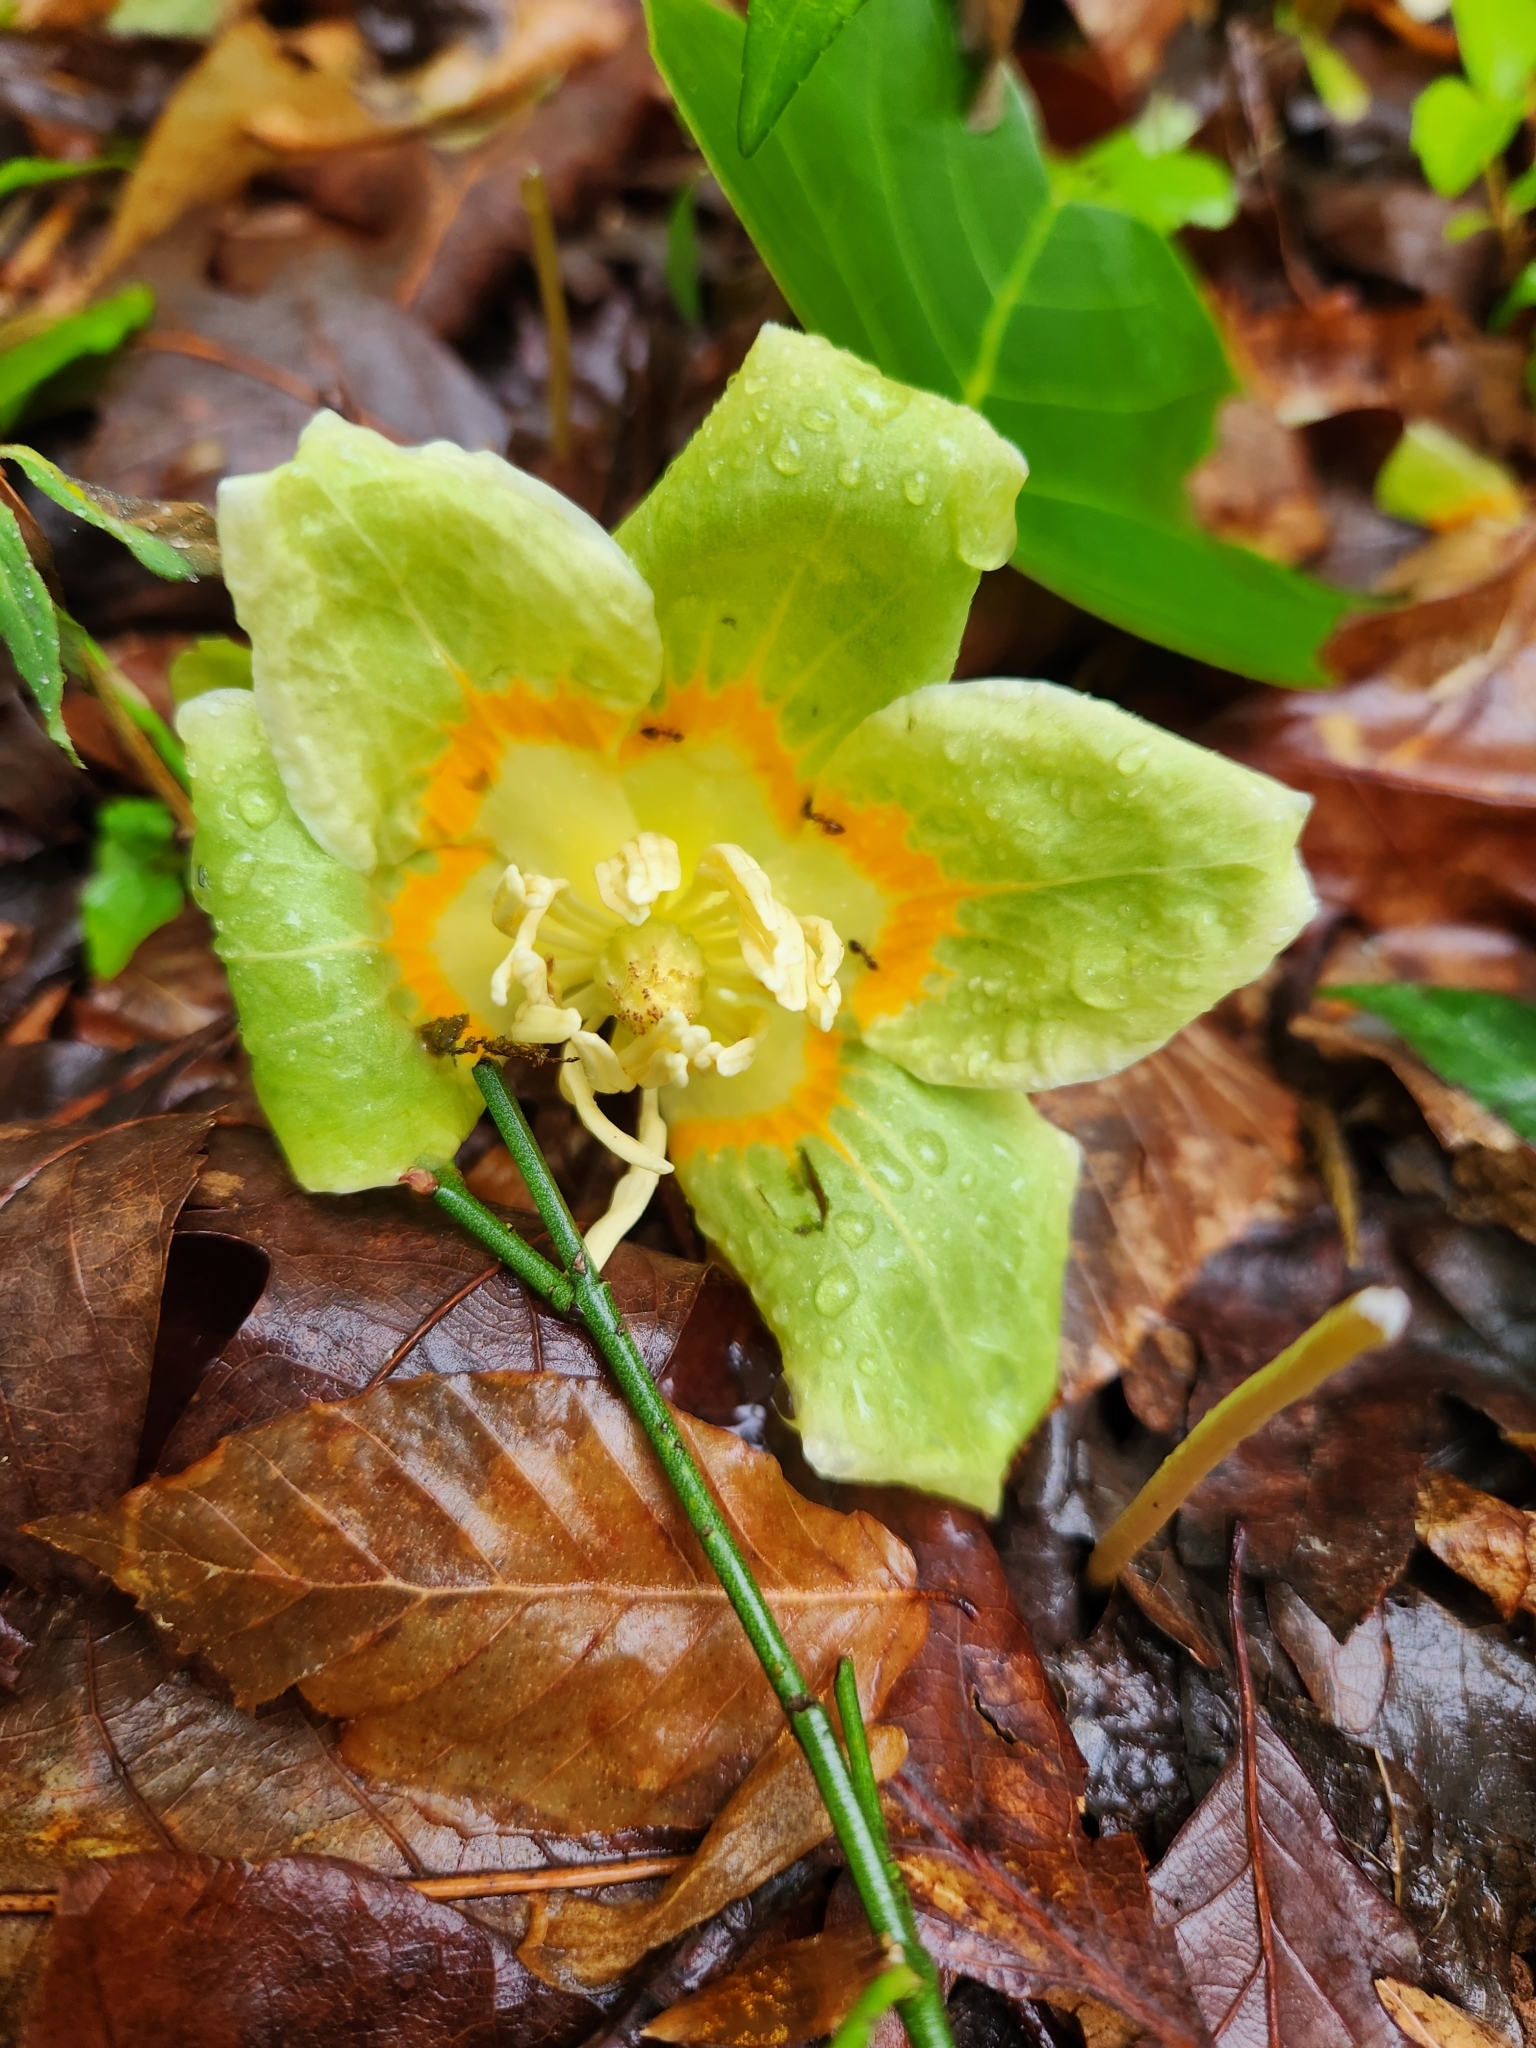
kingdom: Plantae
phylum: Tracheophyta
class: Magnoliopsida
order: Magnoliales
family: Magnoliaceae
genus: Liriodendron
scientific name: Liriodendron tulipifera
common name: Tulip tree
